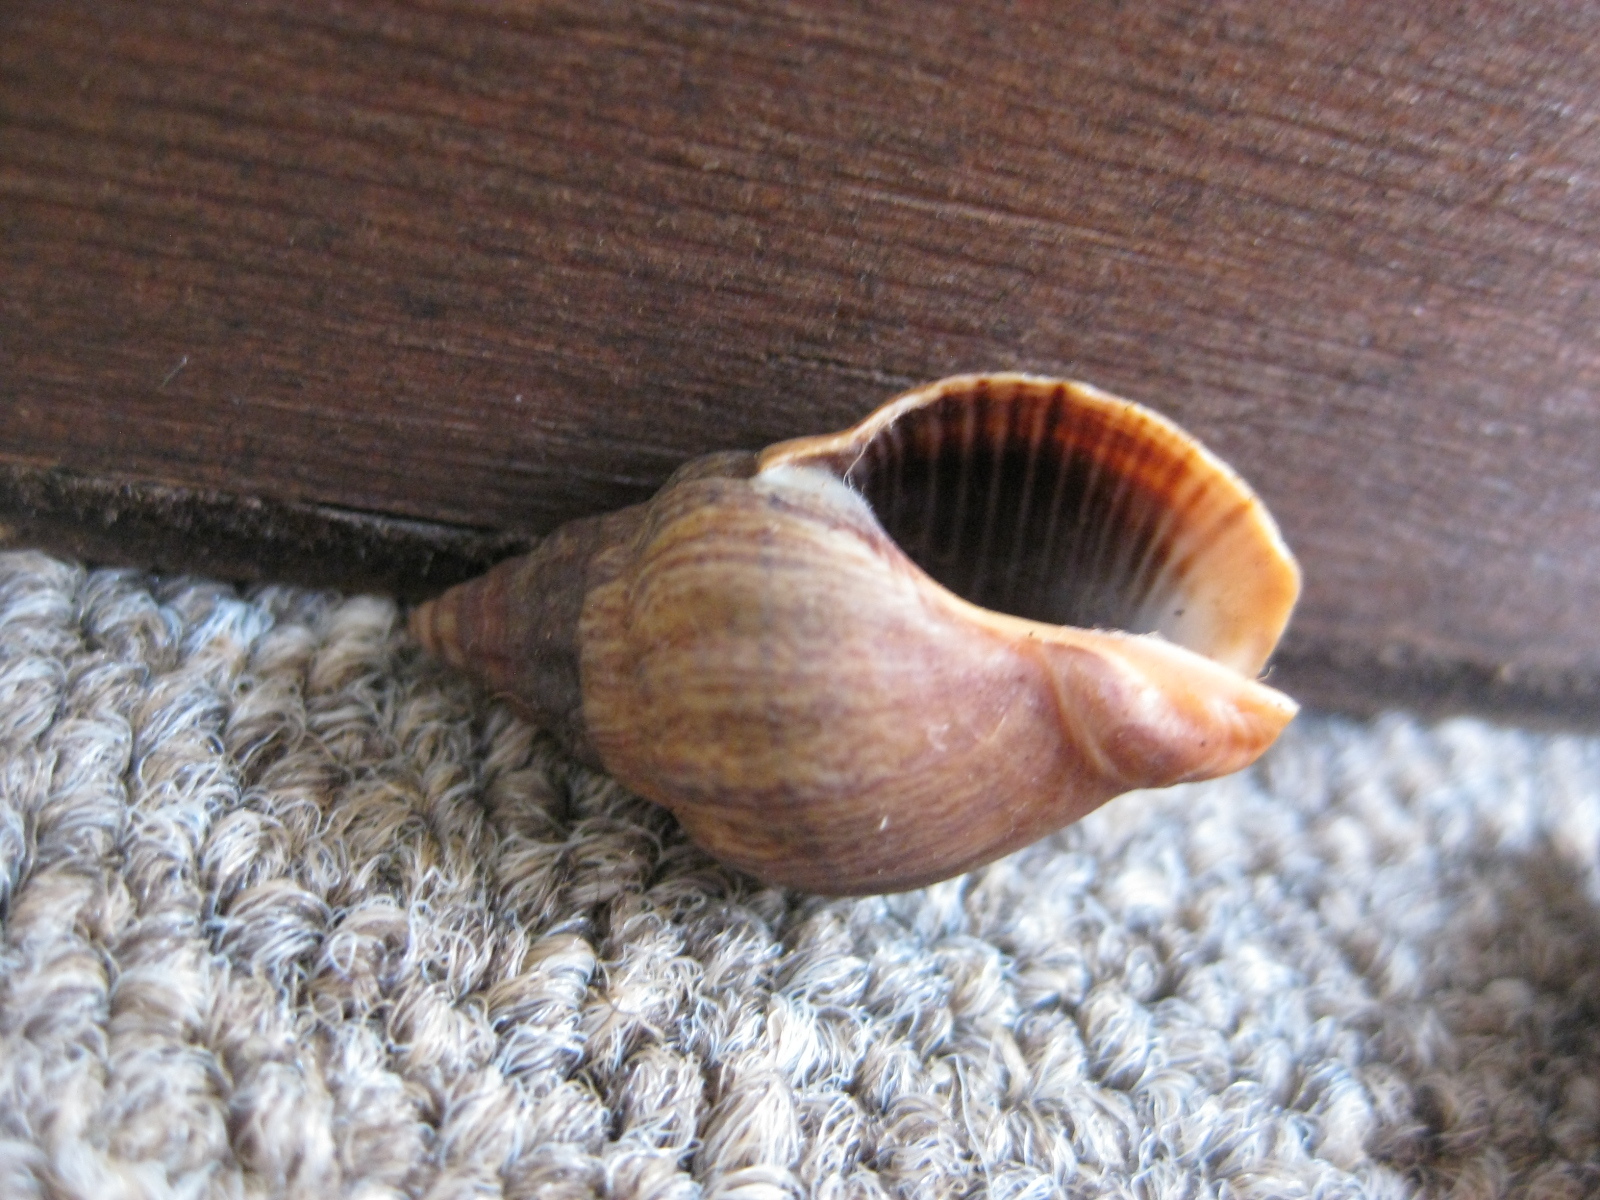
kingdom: Animalia
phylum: Mollusca
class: Gastropoda
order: Neogastropoda
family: Cominellidae
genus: Cominella
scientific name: Cominella virgata
